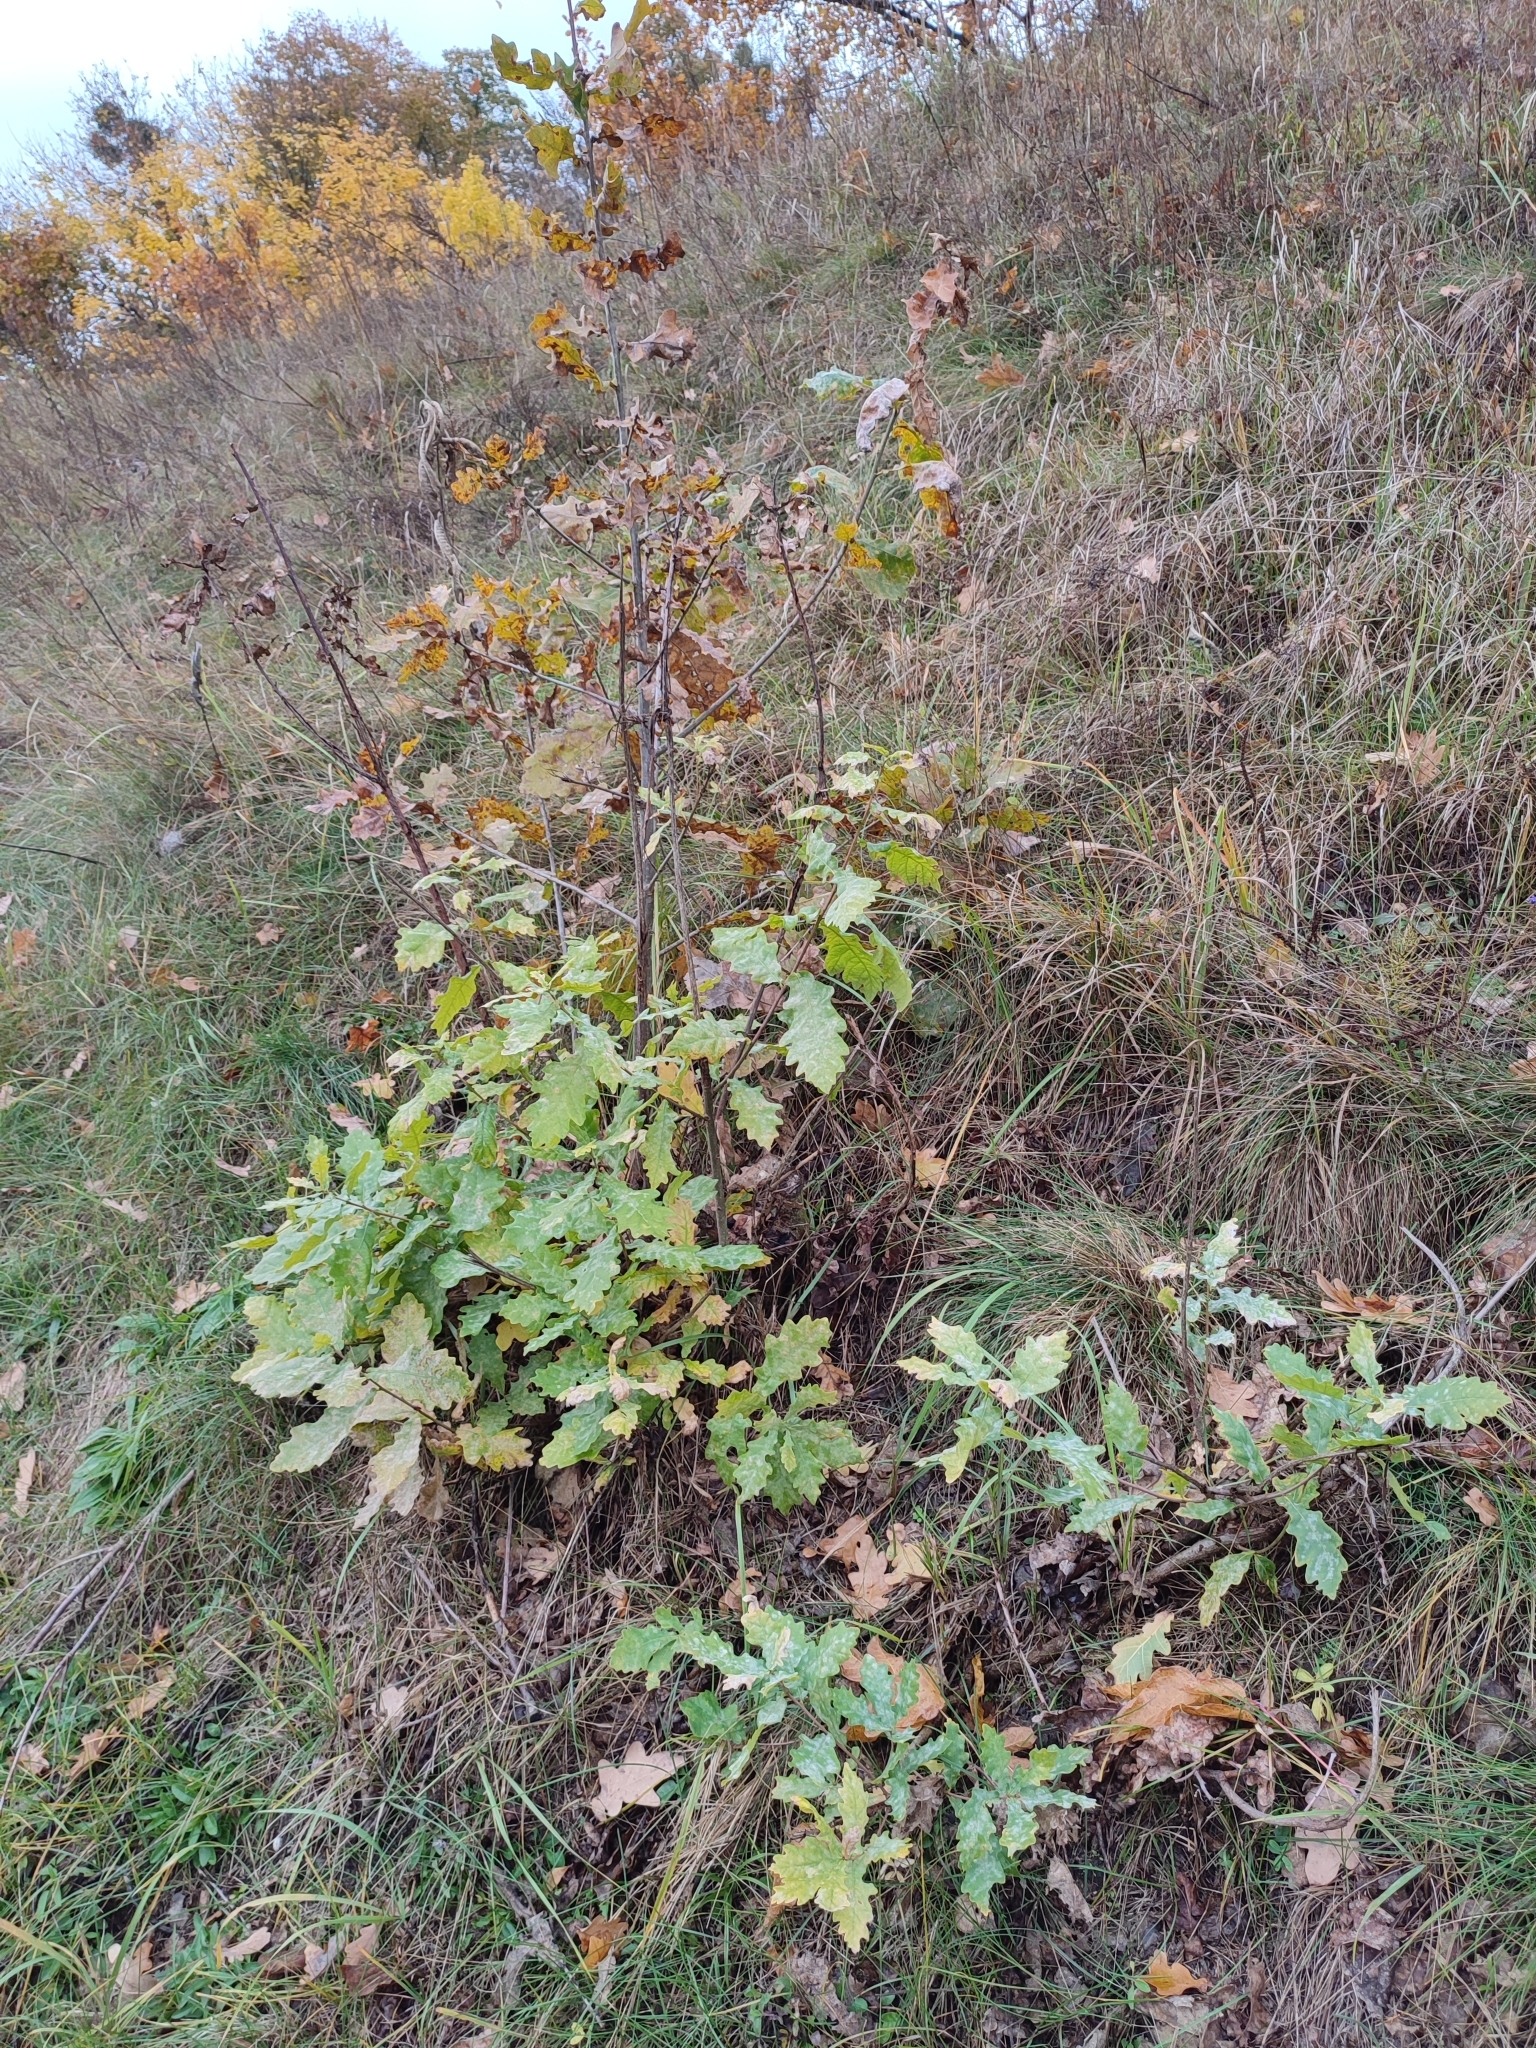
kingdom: Plantae
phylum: Tracheophyta
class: Magnoliopsida
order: Fagales
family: Fagaceae
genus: Quercus
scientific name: Quercus robur
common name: Pedunculate oak
